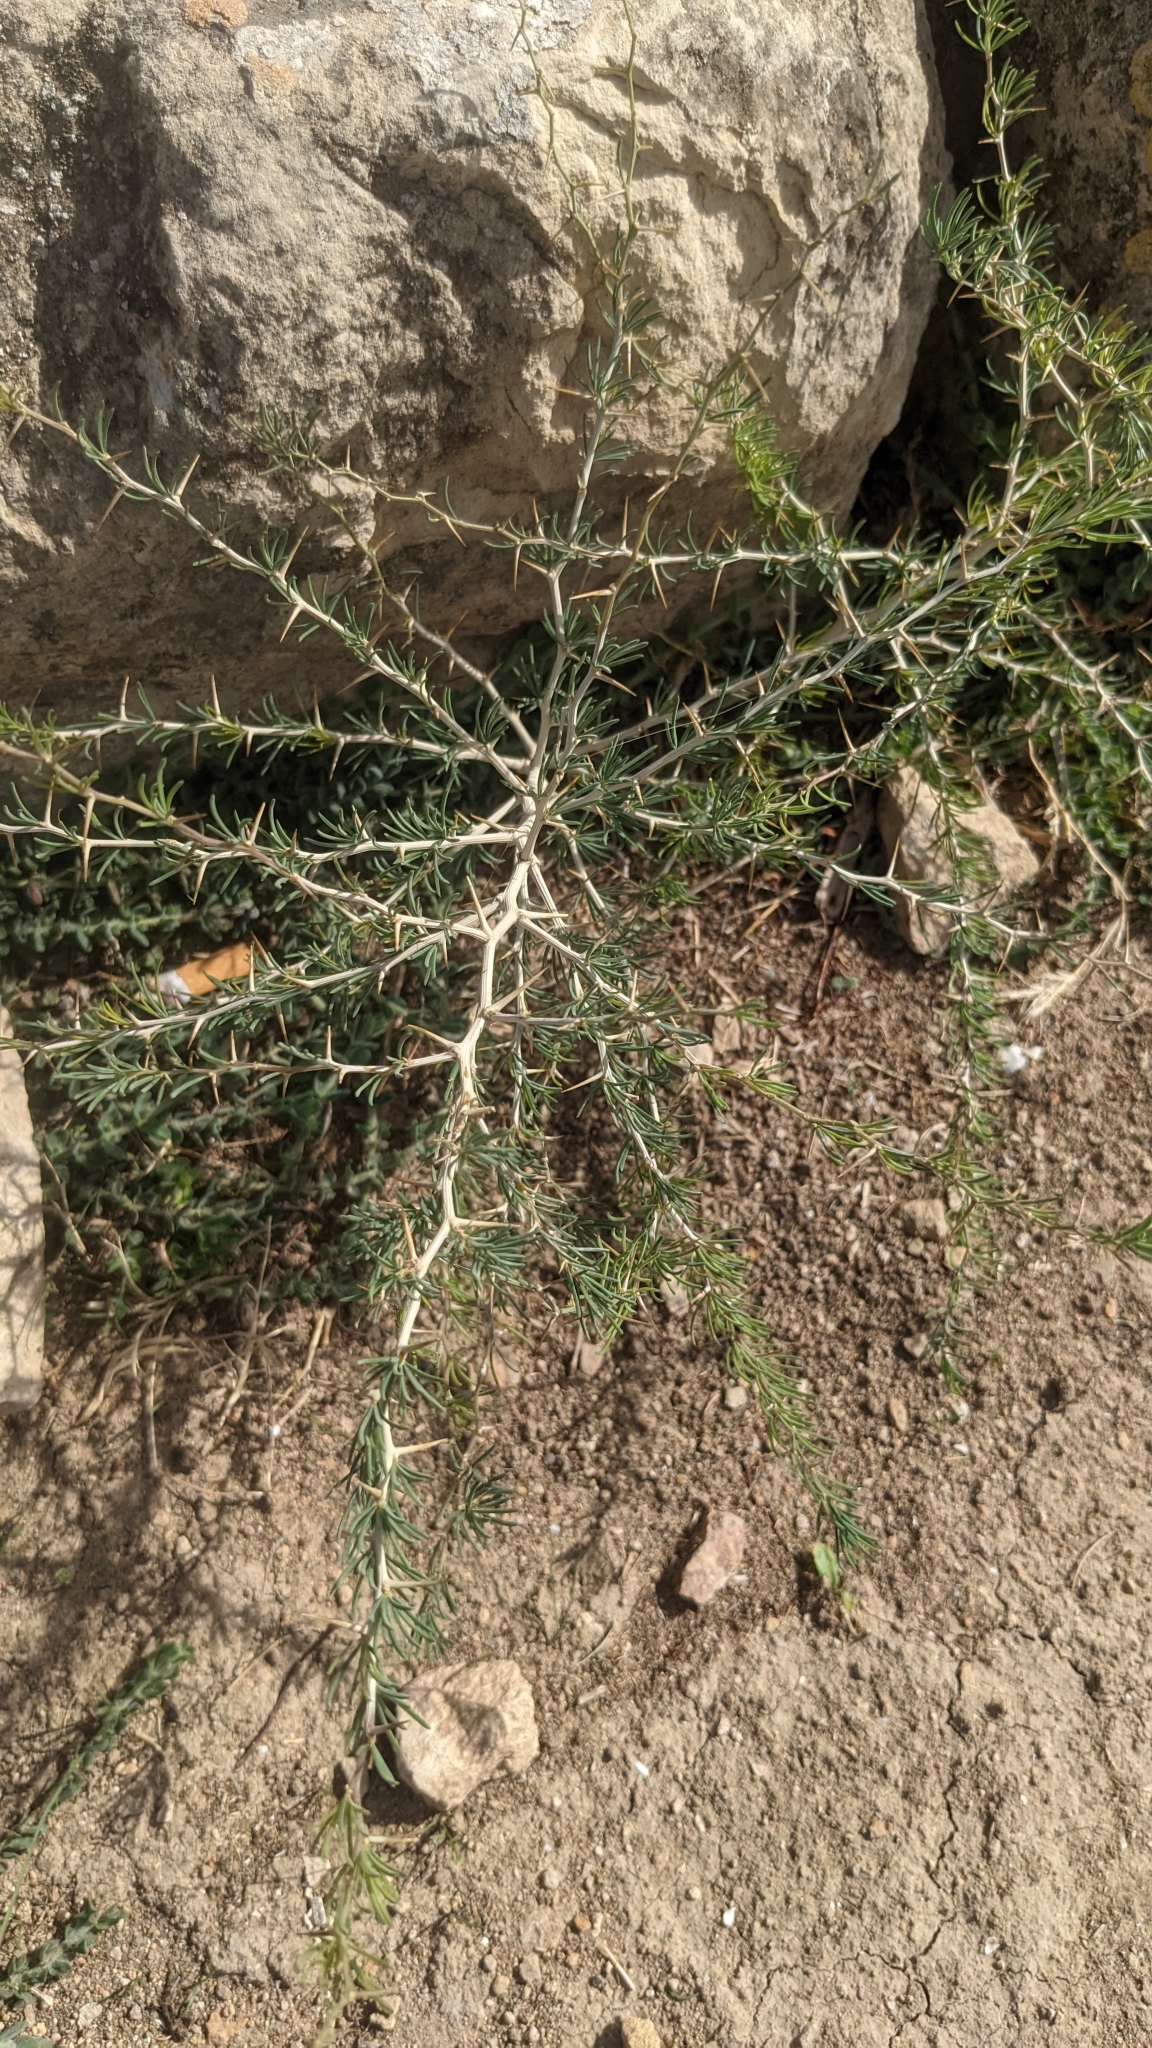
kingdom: Plantae
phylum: Tracheophyta
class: Liliopsida
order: Asparagales
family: Asparagaceae
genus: Asparagus
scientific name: Asparagus albus
